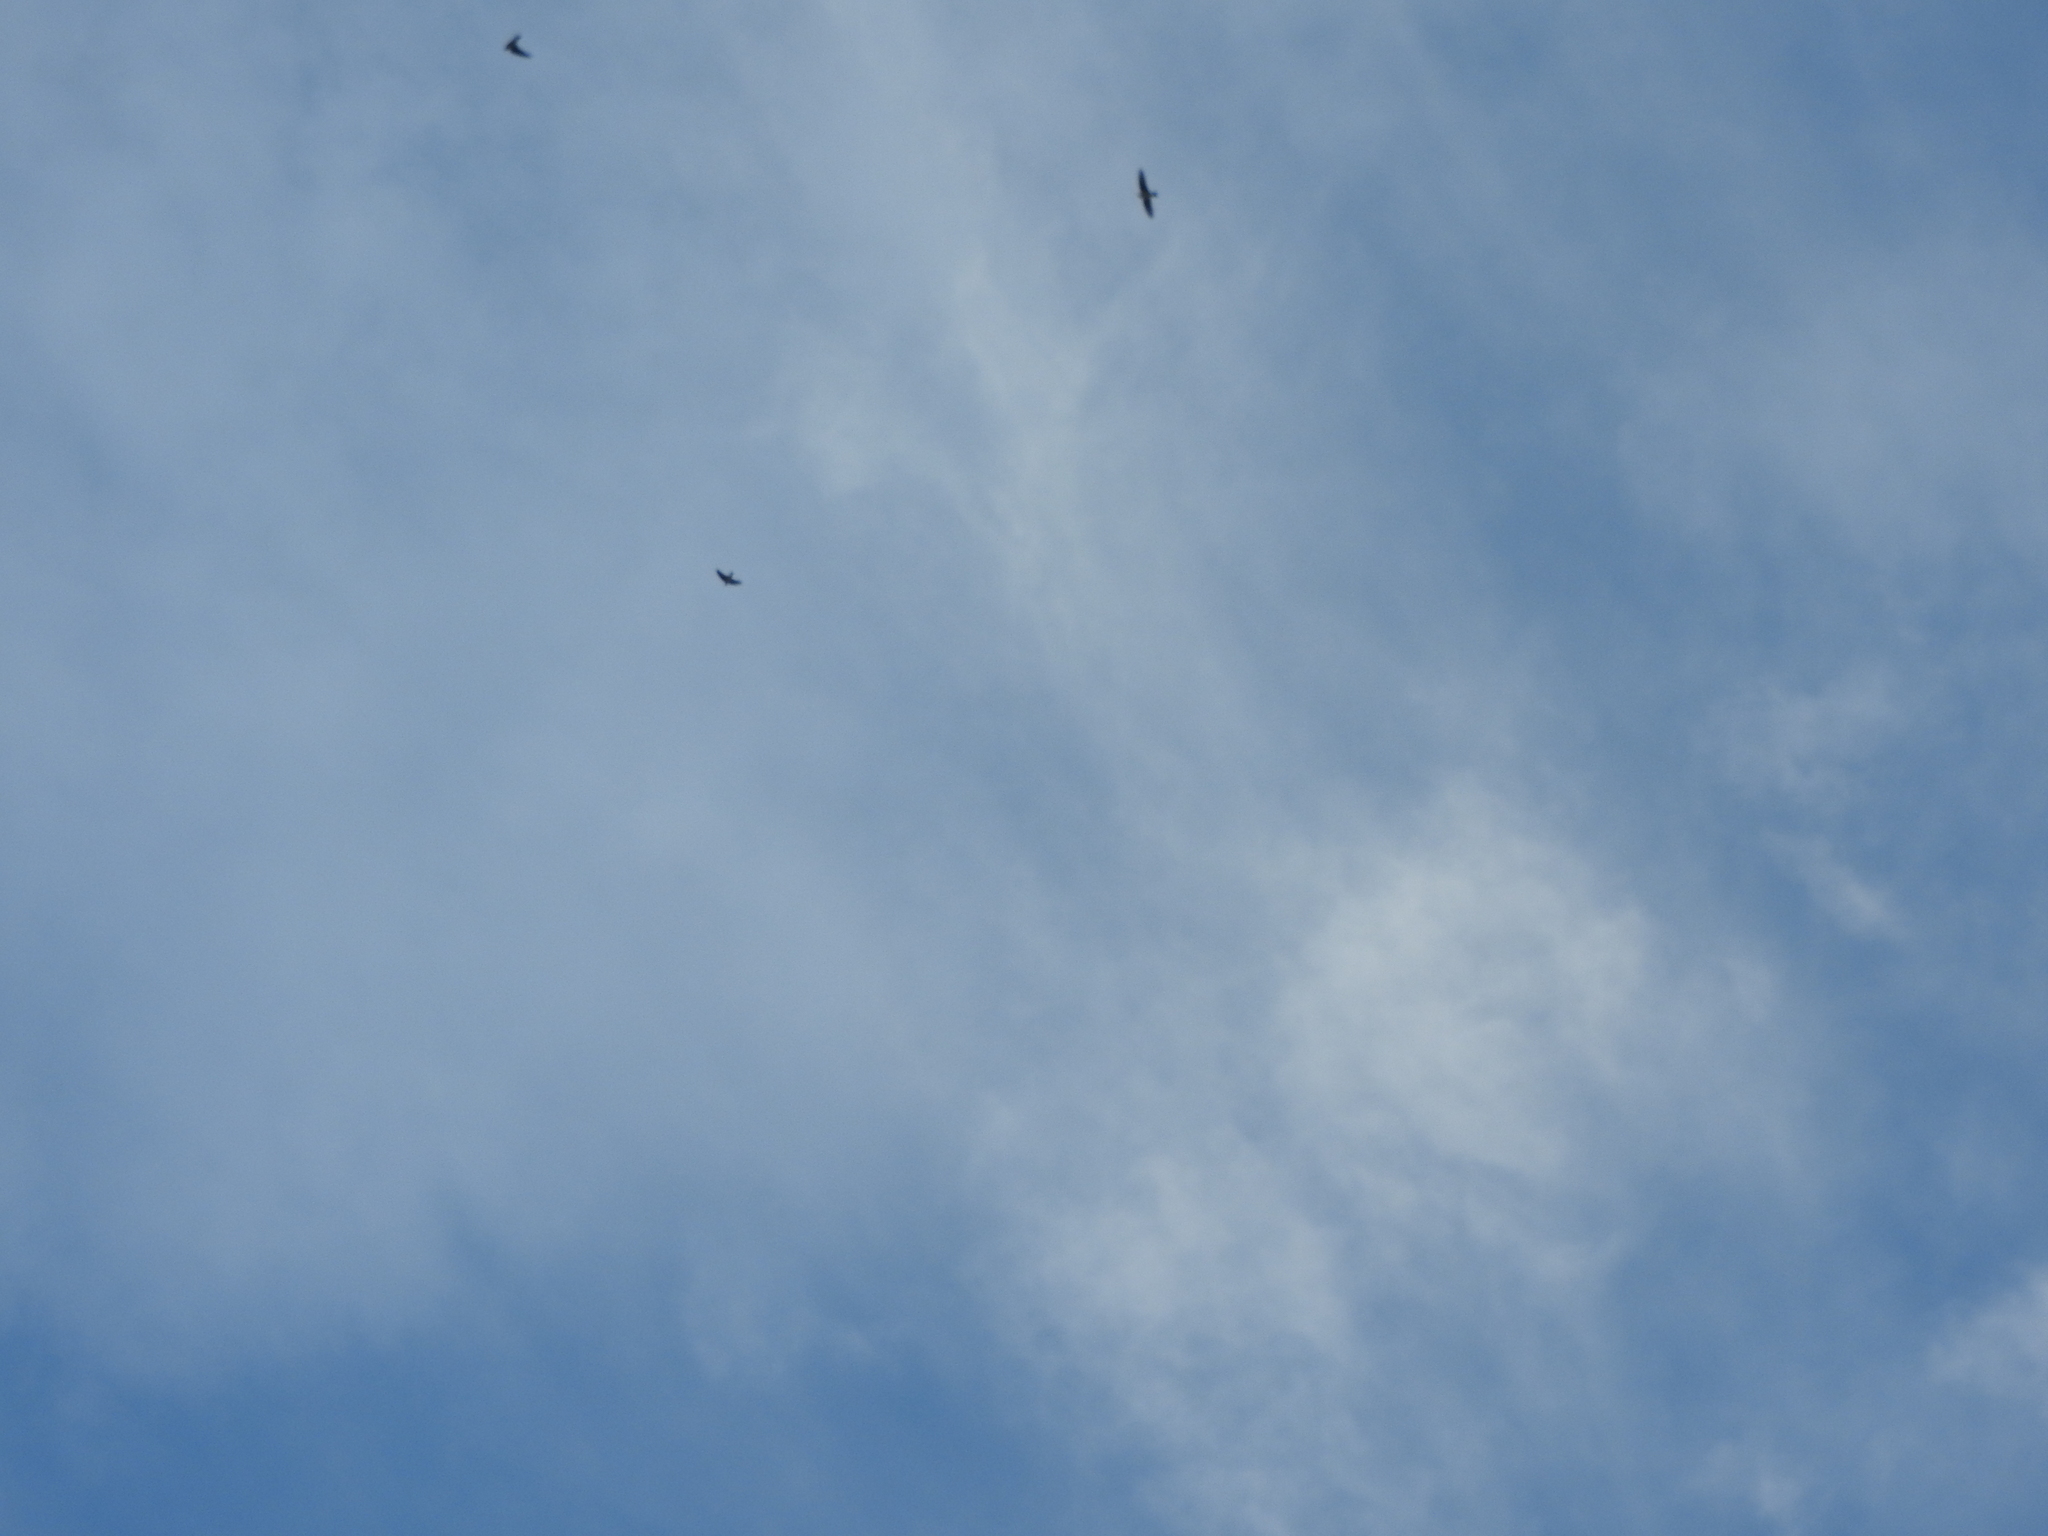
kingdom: Animalia
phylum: Chordata
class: Aves
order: Apodiformes
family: Apodidae
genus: Aeronautes
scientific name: Aeronautes saxatalis
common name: White-throated swift
